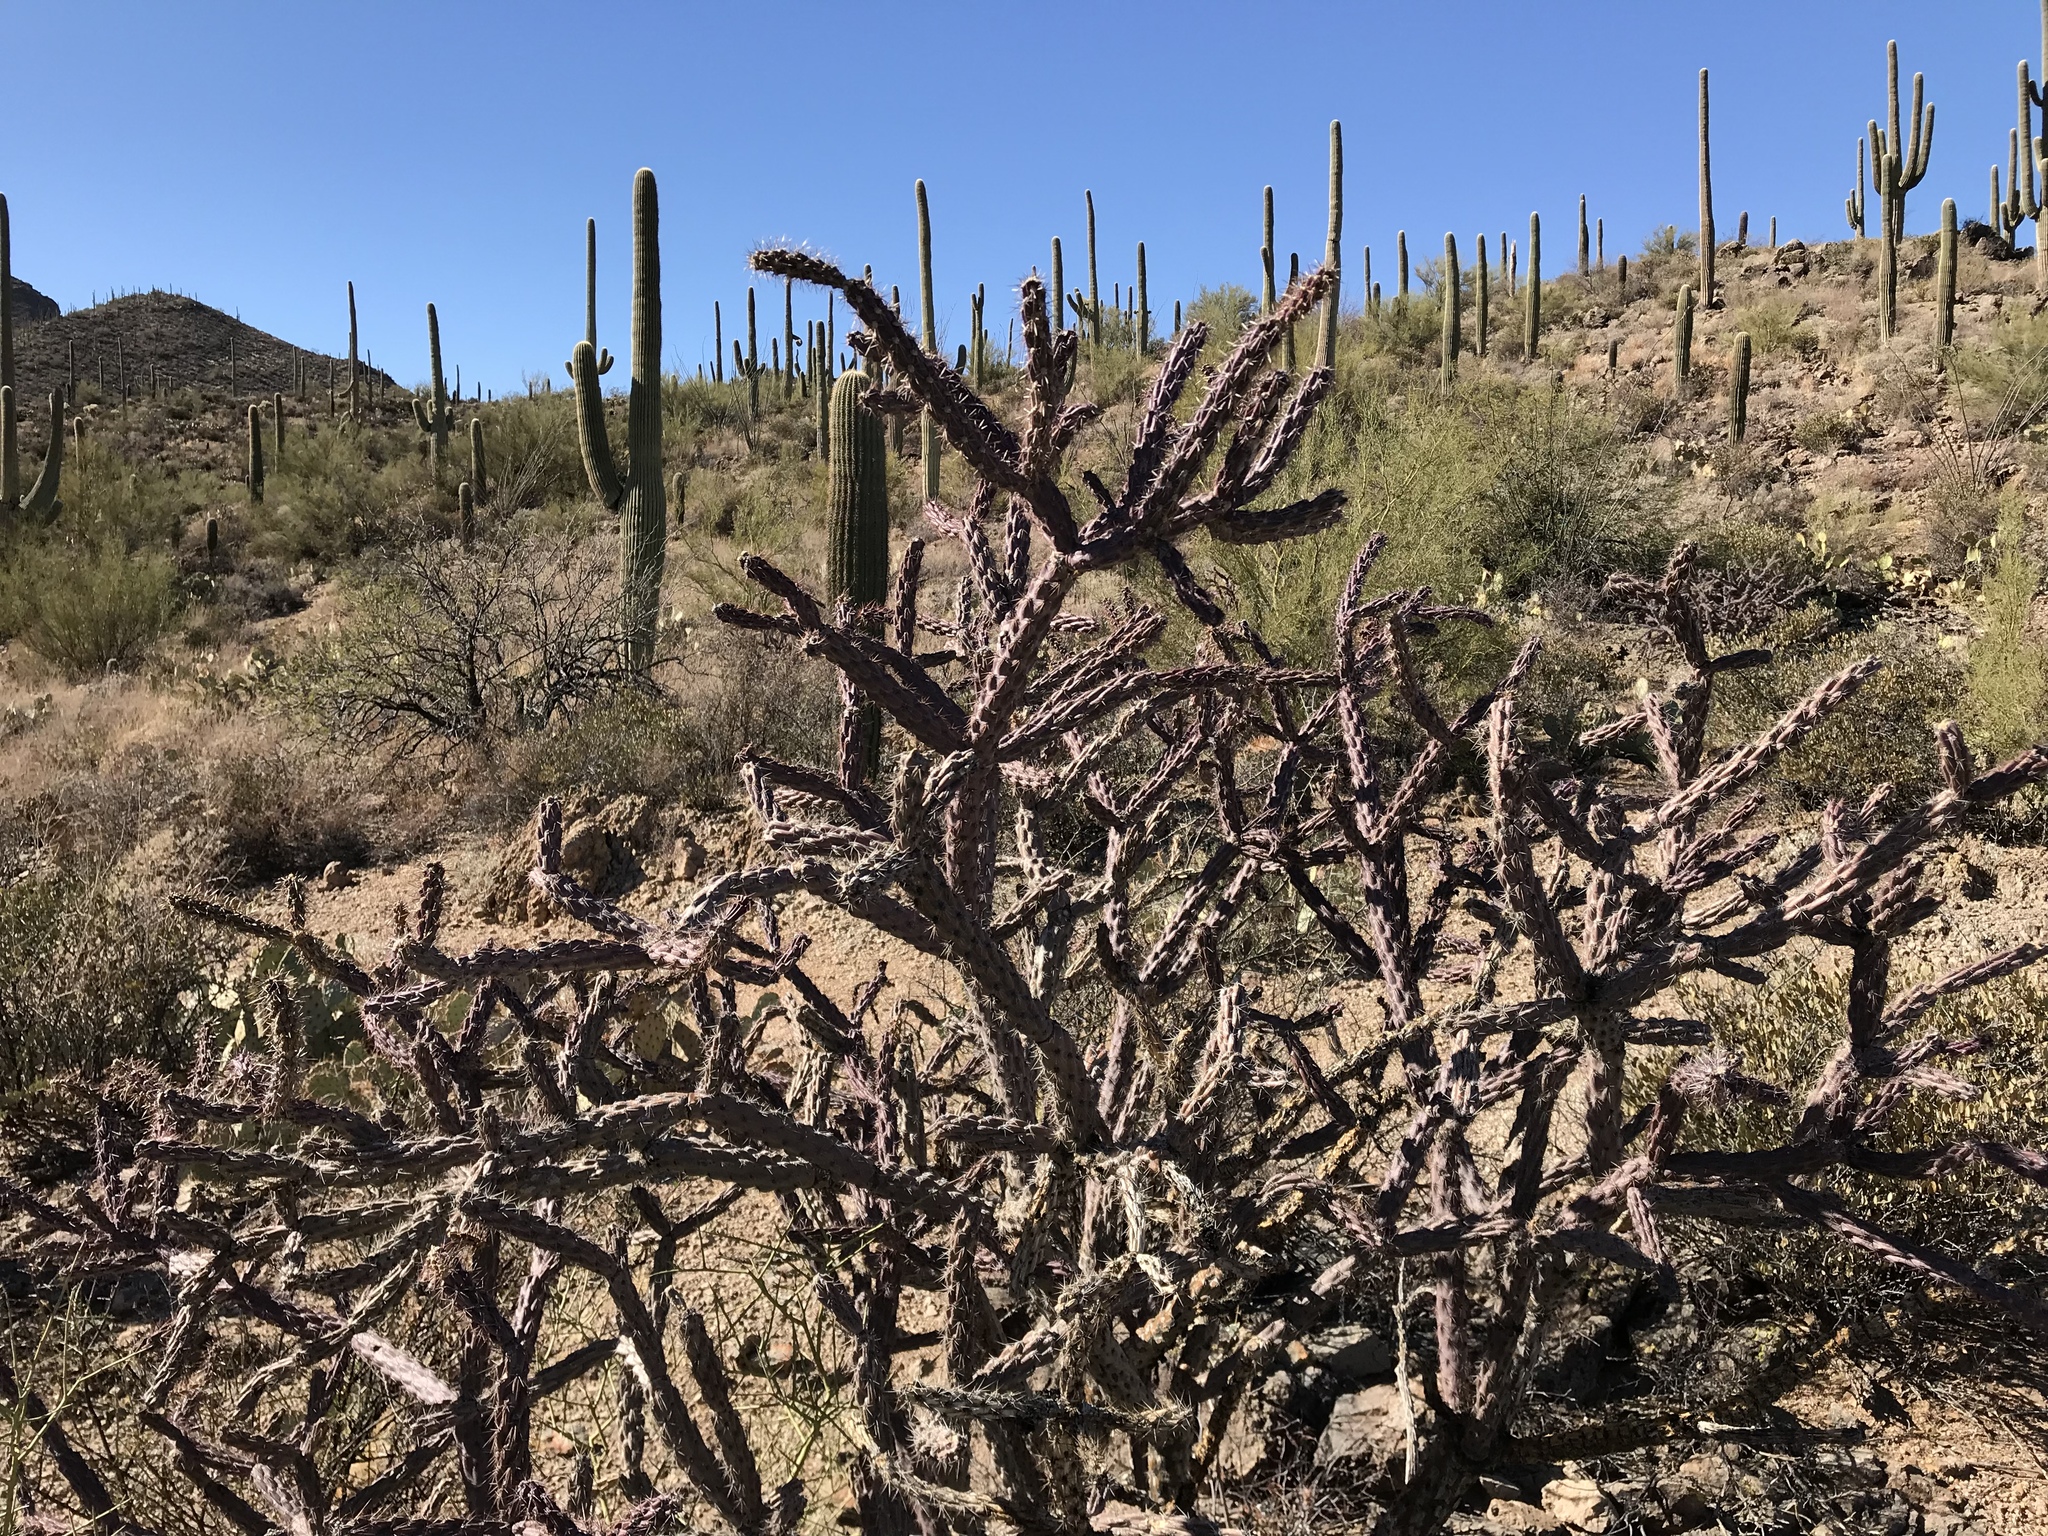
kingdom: Plantae
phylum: Tracheophyta
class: Magnoliopsida
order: Caryophyllales
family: Cactaceae
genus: Cylindropuntia
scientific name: Cylindropuntia thurberi
